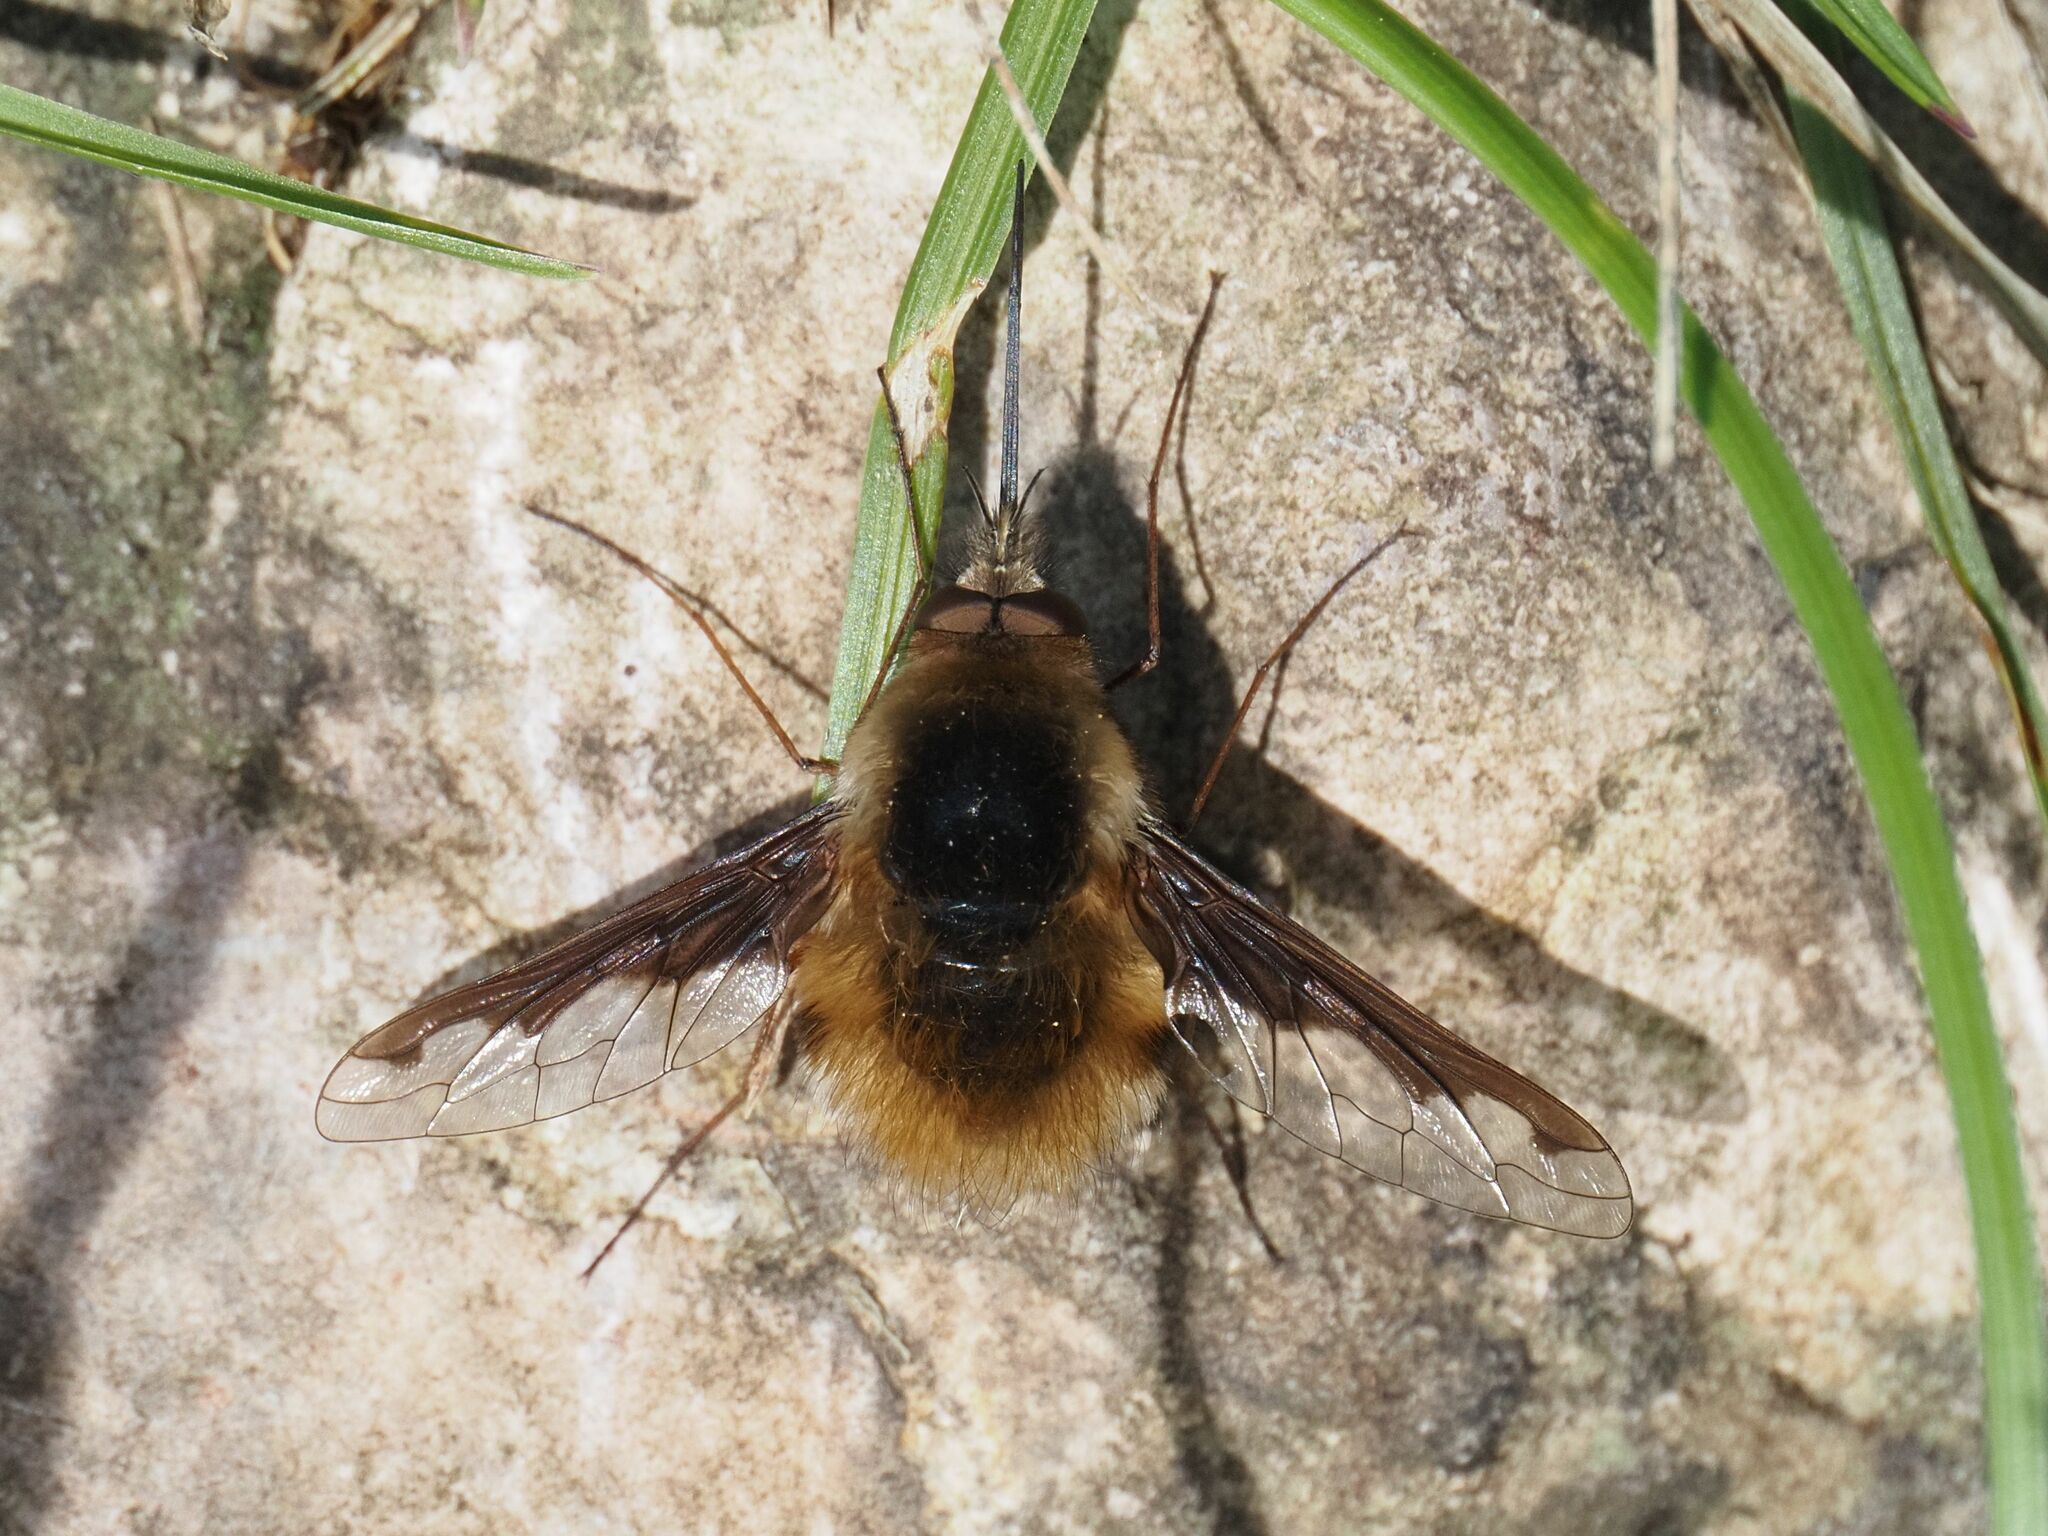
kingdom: Animalia
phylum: Arthropoda
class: Insecta
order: Diptera
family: Bombyliidae
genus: Bombylius
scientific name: Bombylius major
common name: Bee fly
